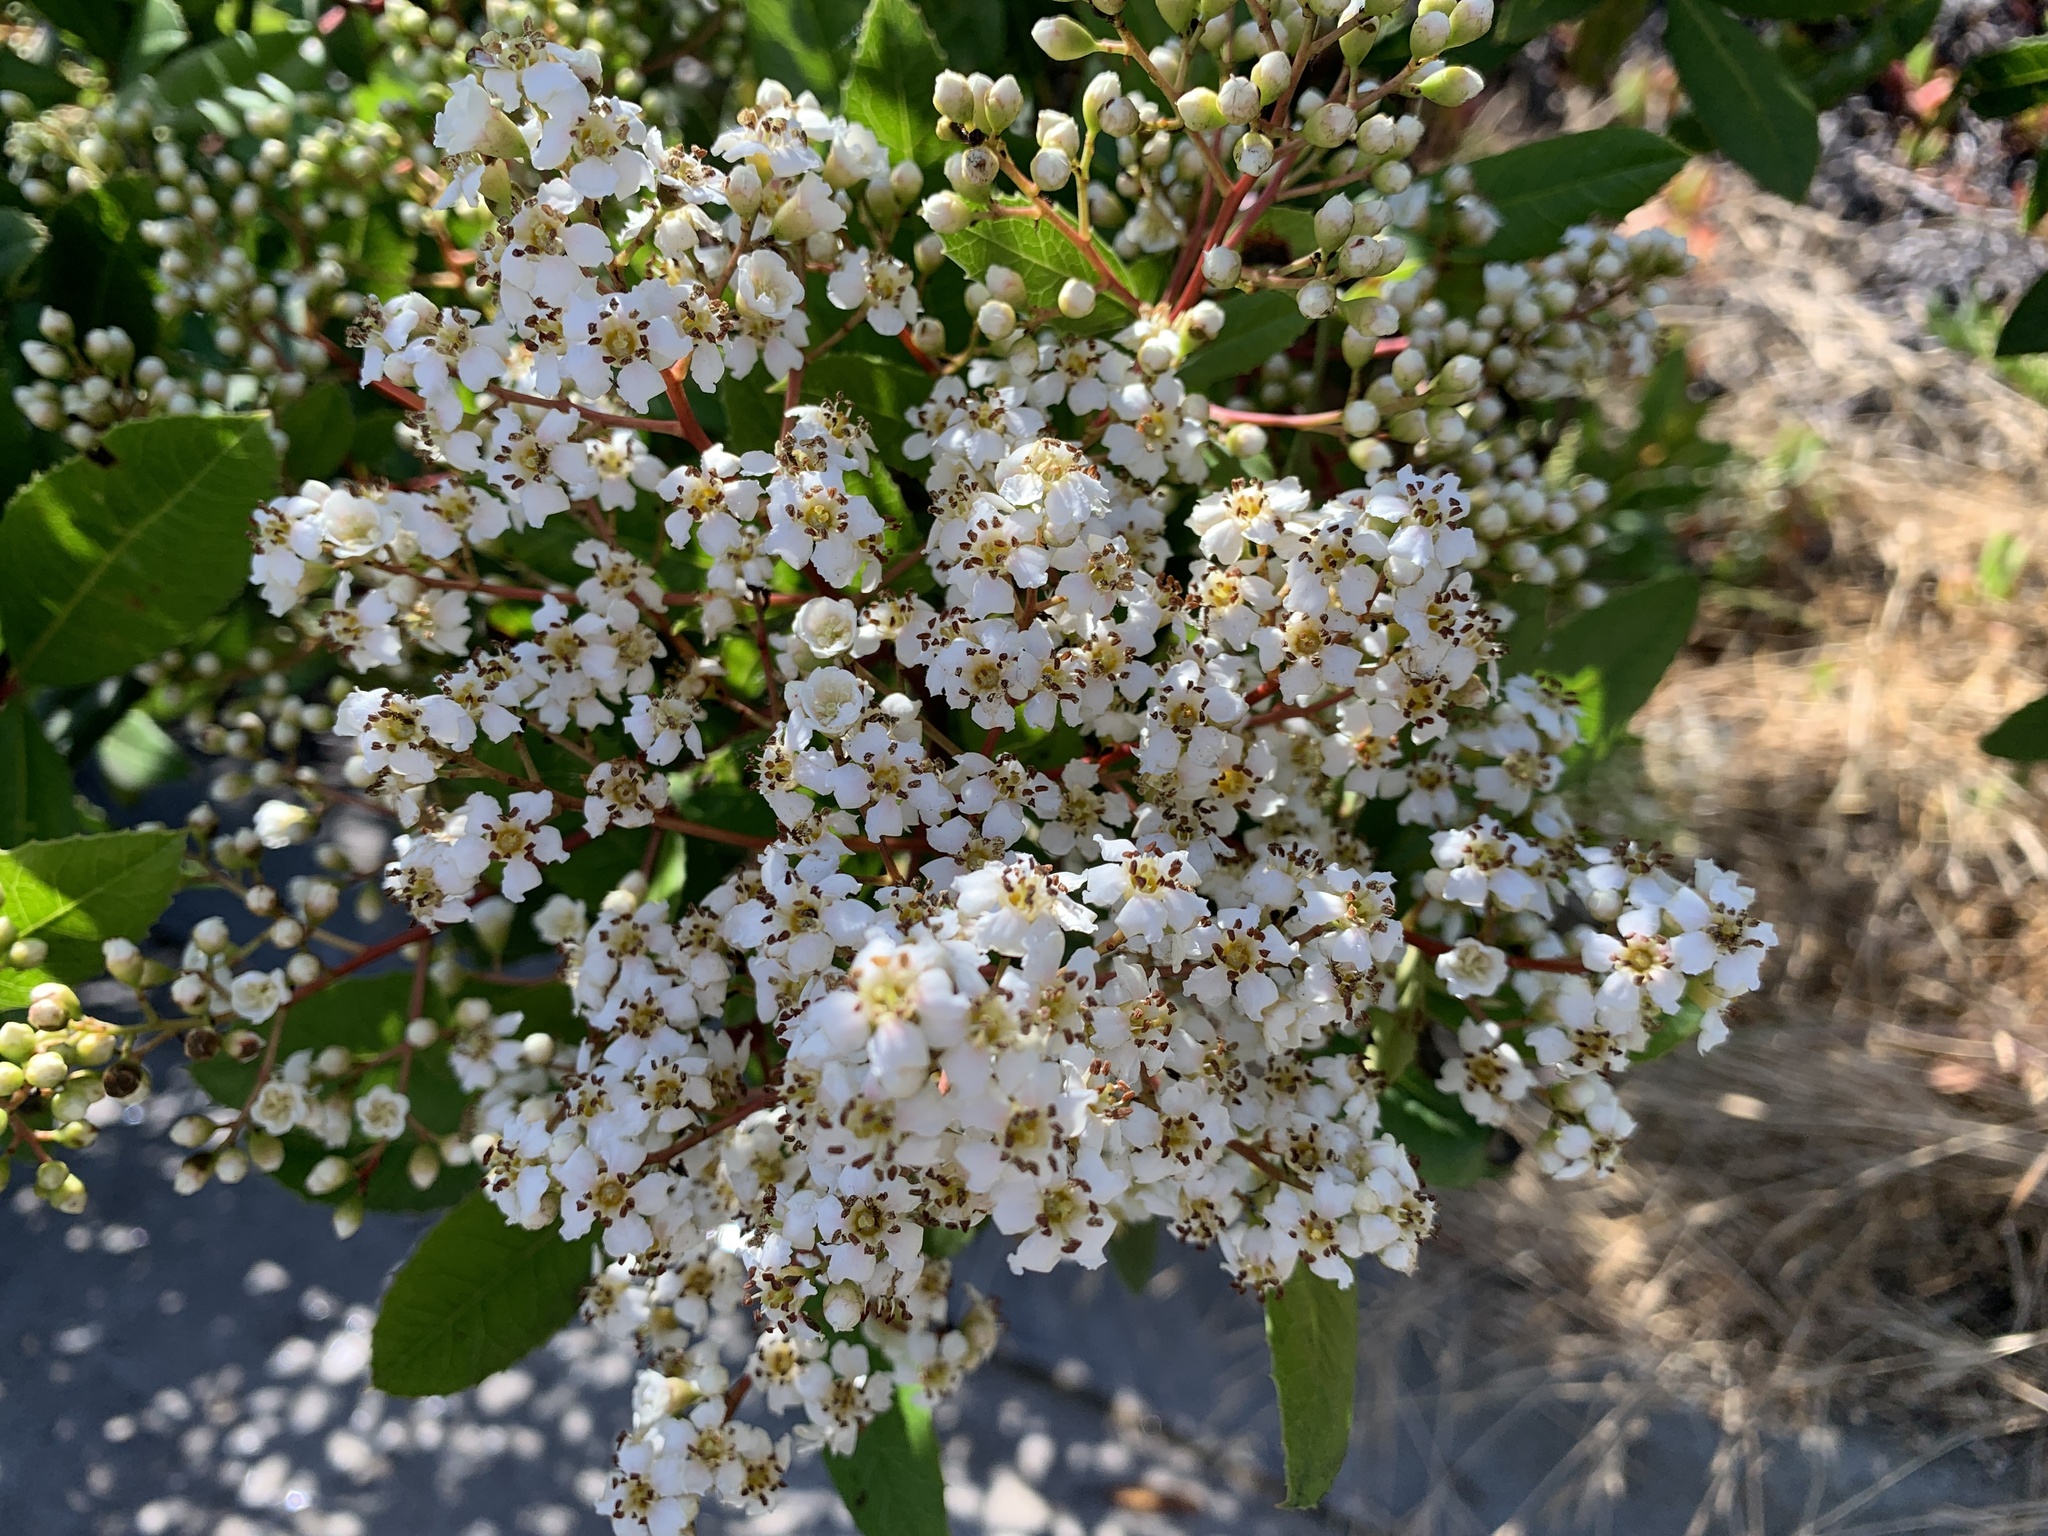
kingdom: Plantae
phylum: Tracheophyta
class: Magnoliopsida
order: Rosales
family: Rosaceae
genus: Heteromeles
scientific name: Heteromeles arbutifolia
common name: California-holly
